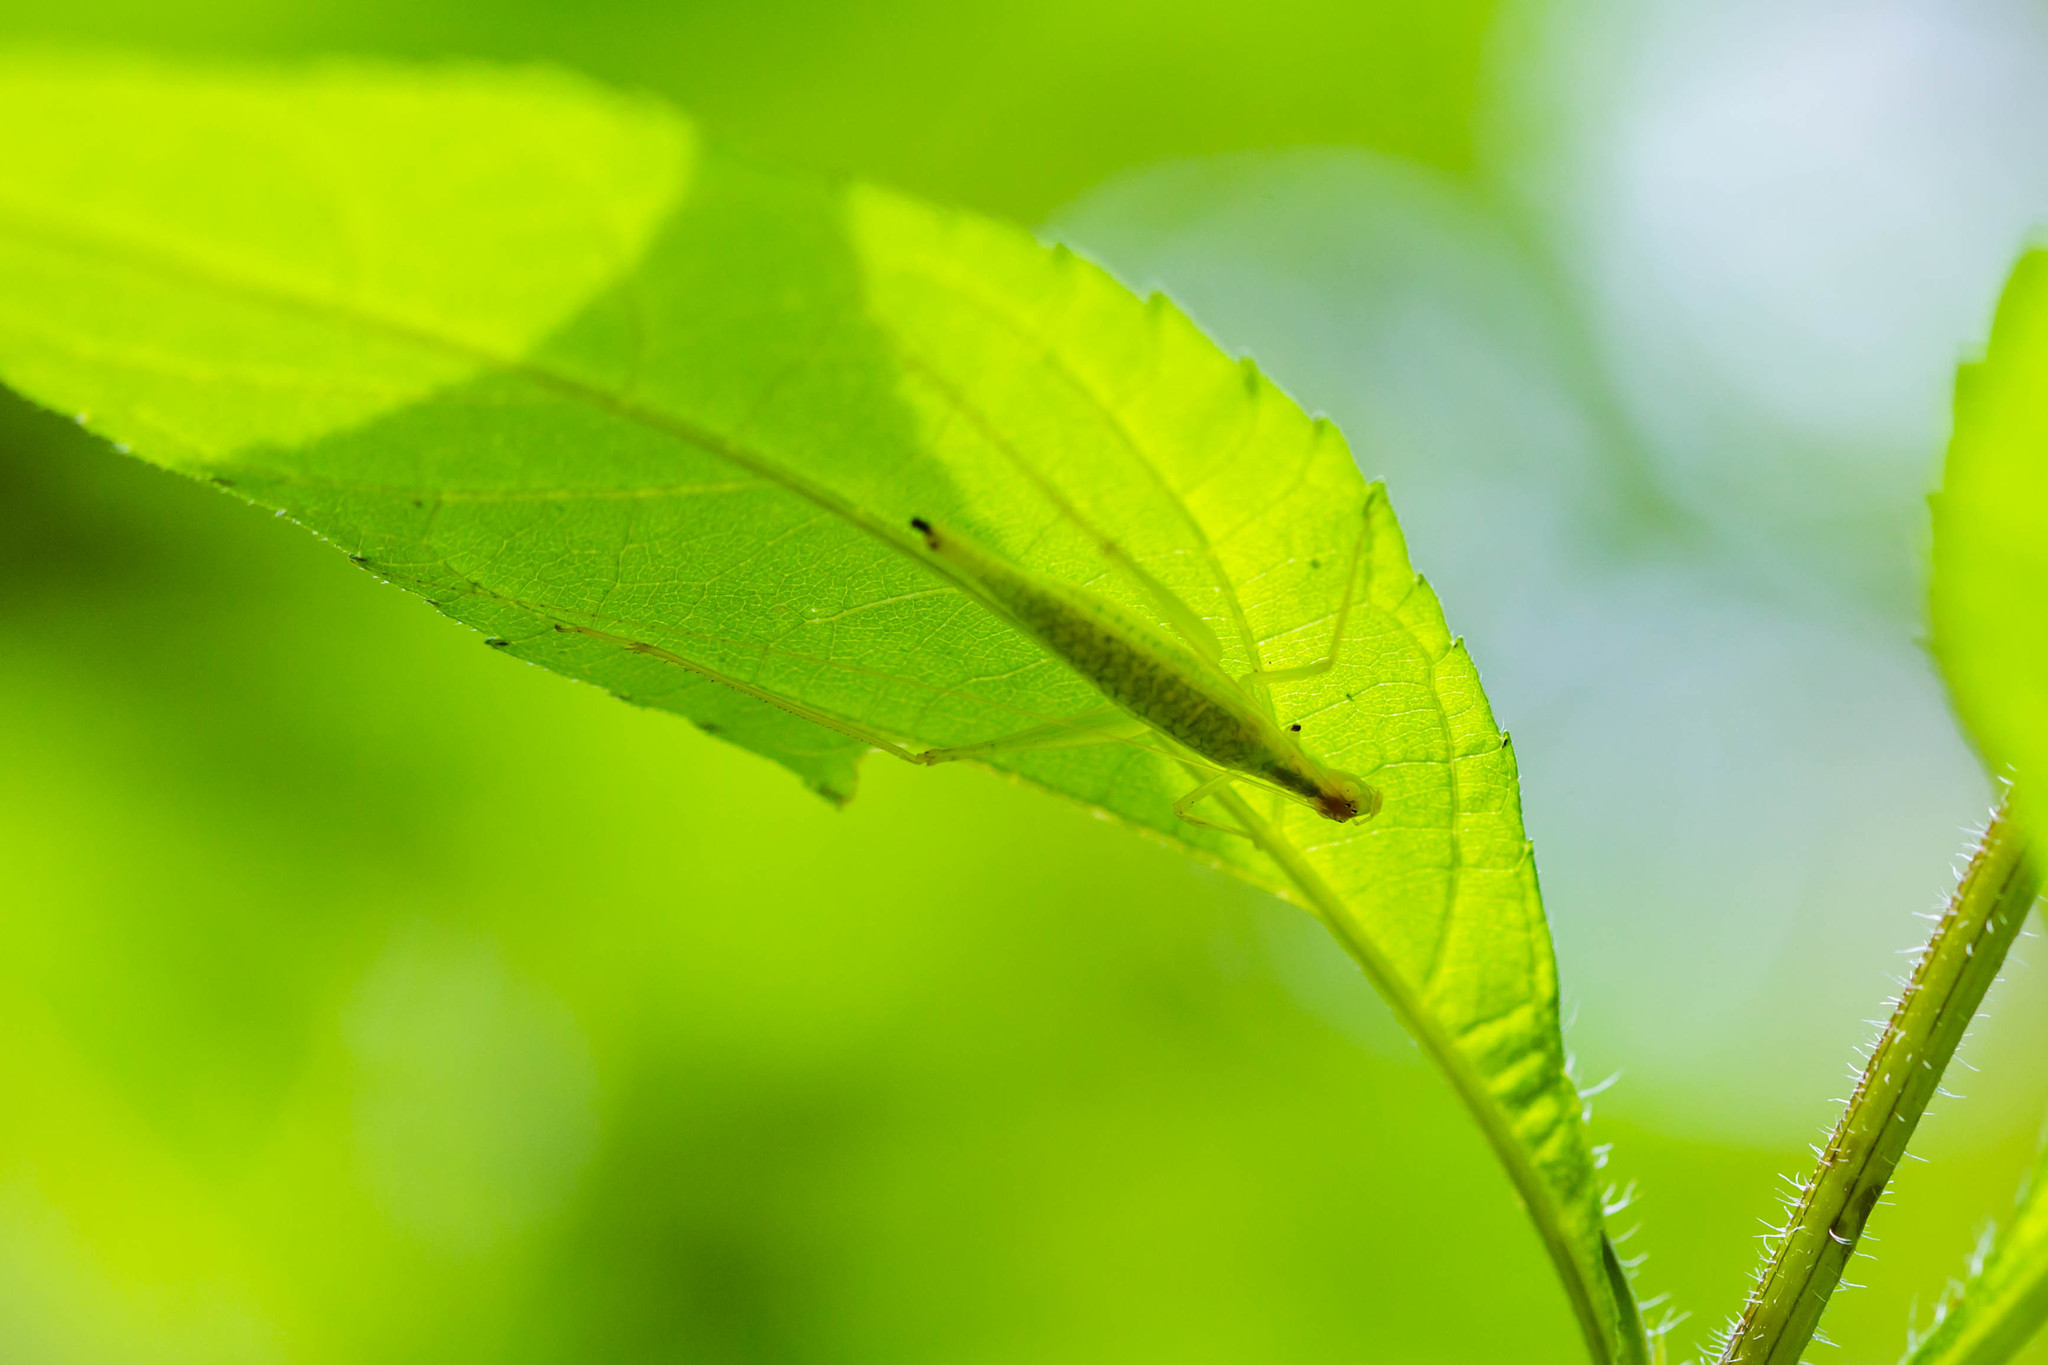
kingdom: Animalia
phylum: Arthropoda
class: Insecta
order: Orthoptera
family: Gryllidae
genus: Oecanthus
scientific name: Oecanthus niveus
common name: Narrow-winged tree cricket
